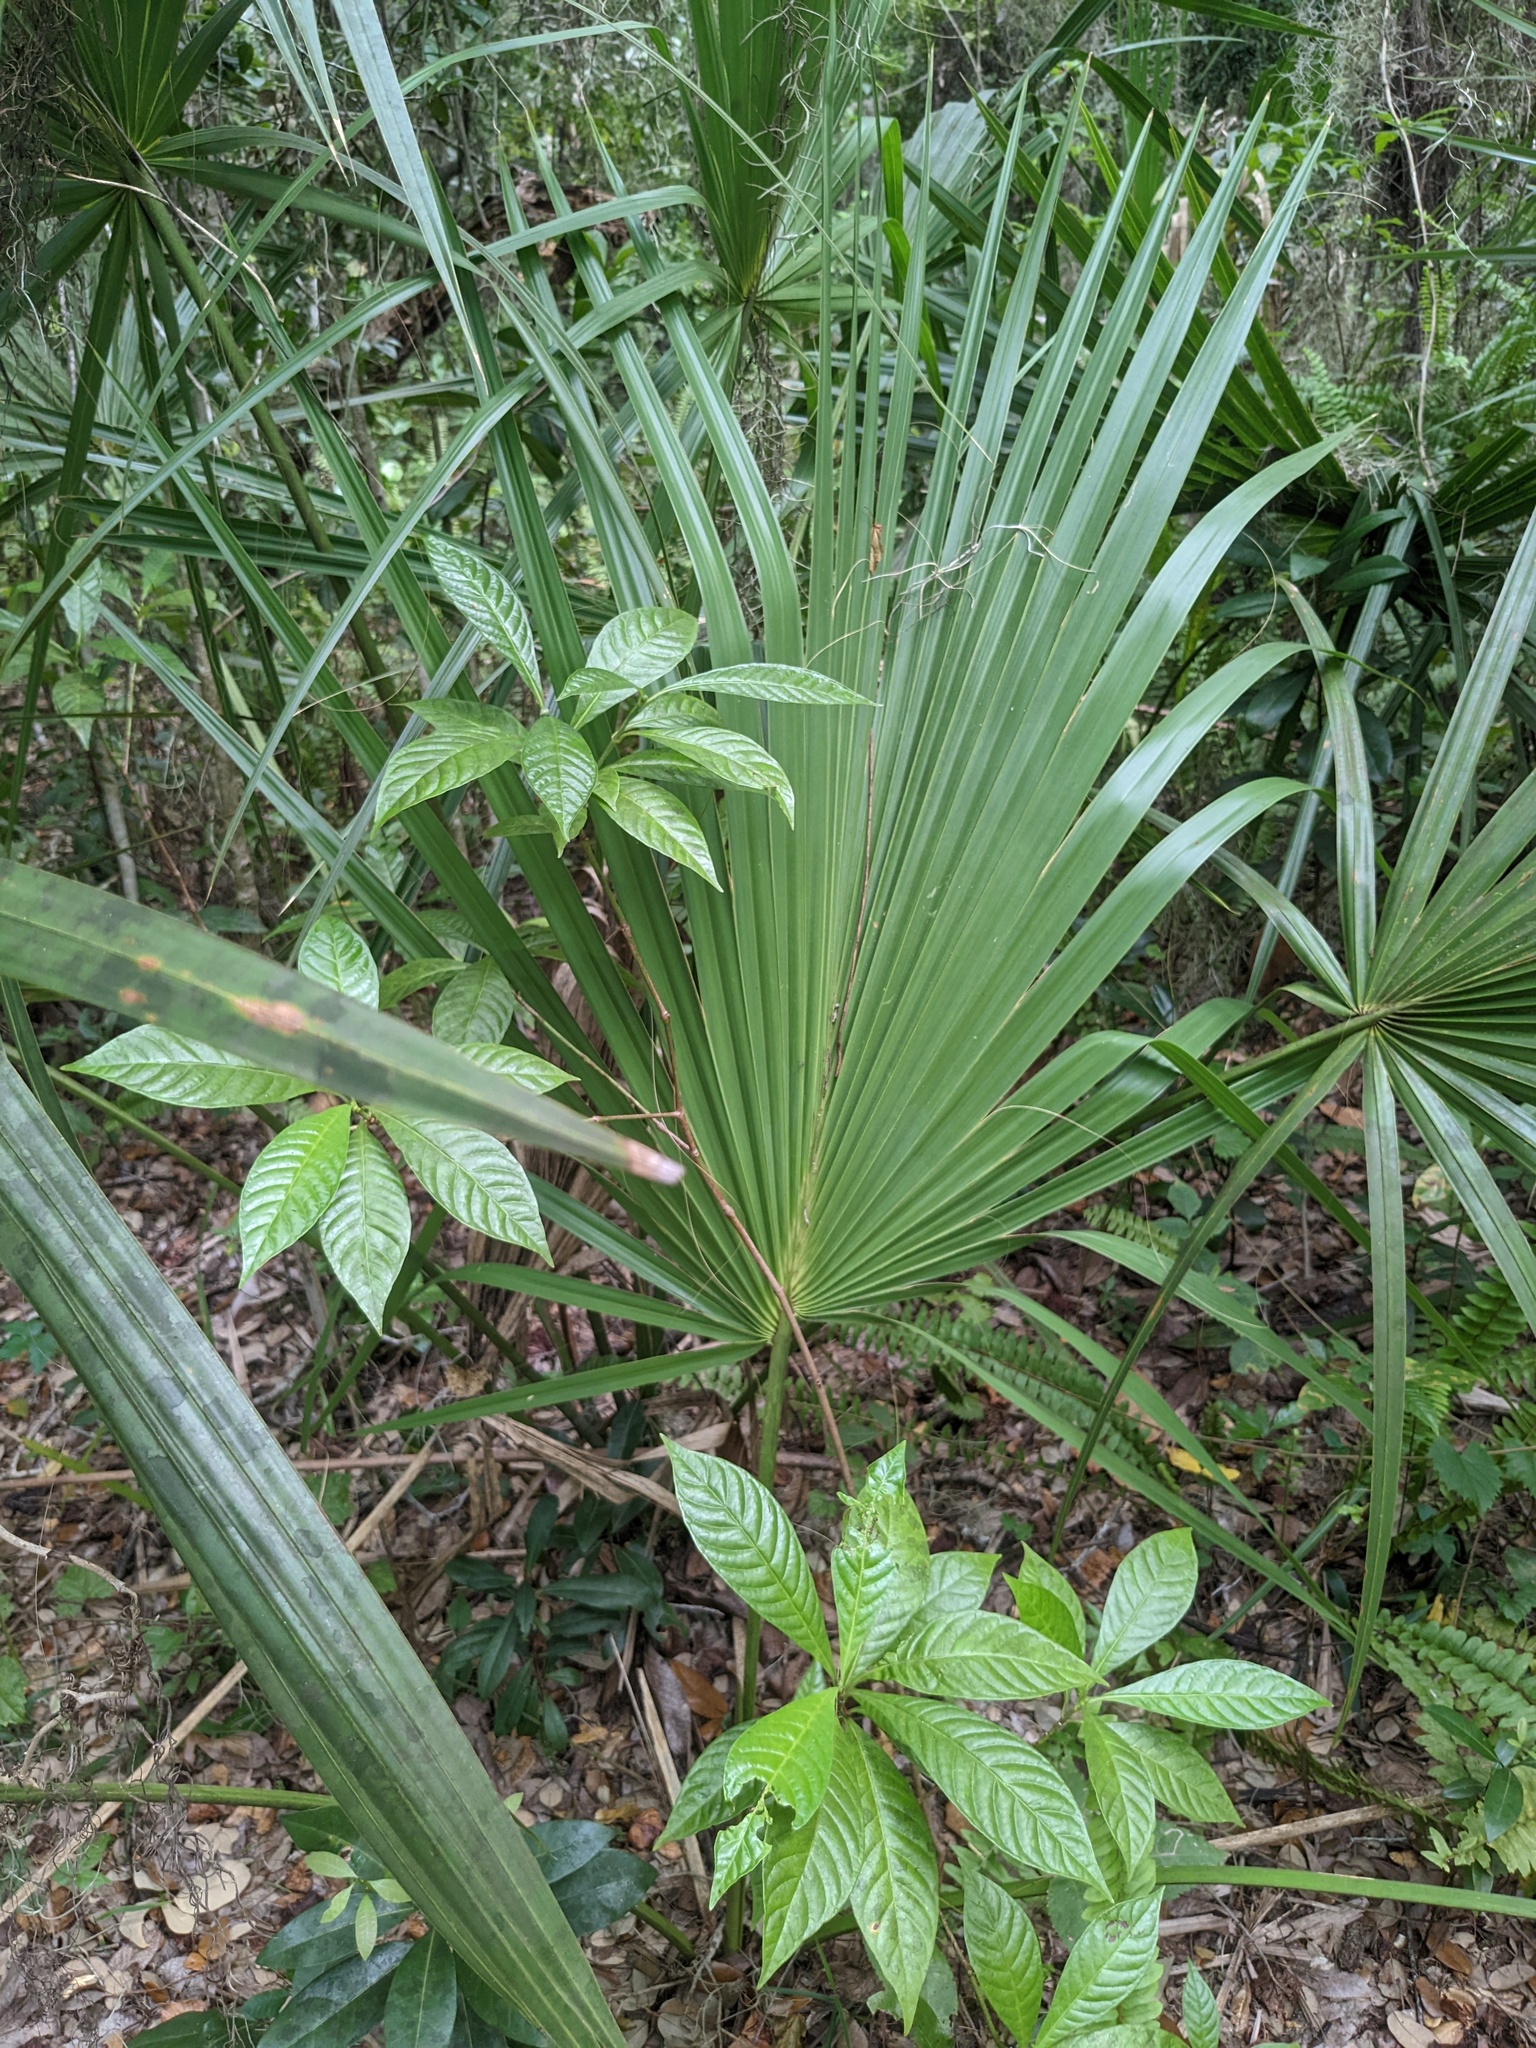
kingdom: Plantae
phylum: Tracheophyta
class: Liliopsida
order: Arecales
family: Arecaceae
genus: Sabal
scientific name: Sabal palmetto
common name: Blue palmetto
